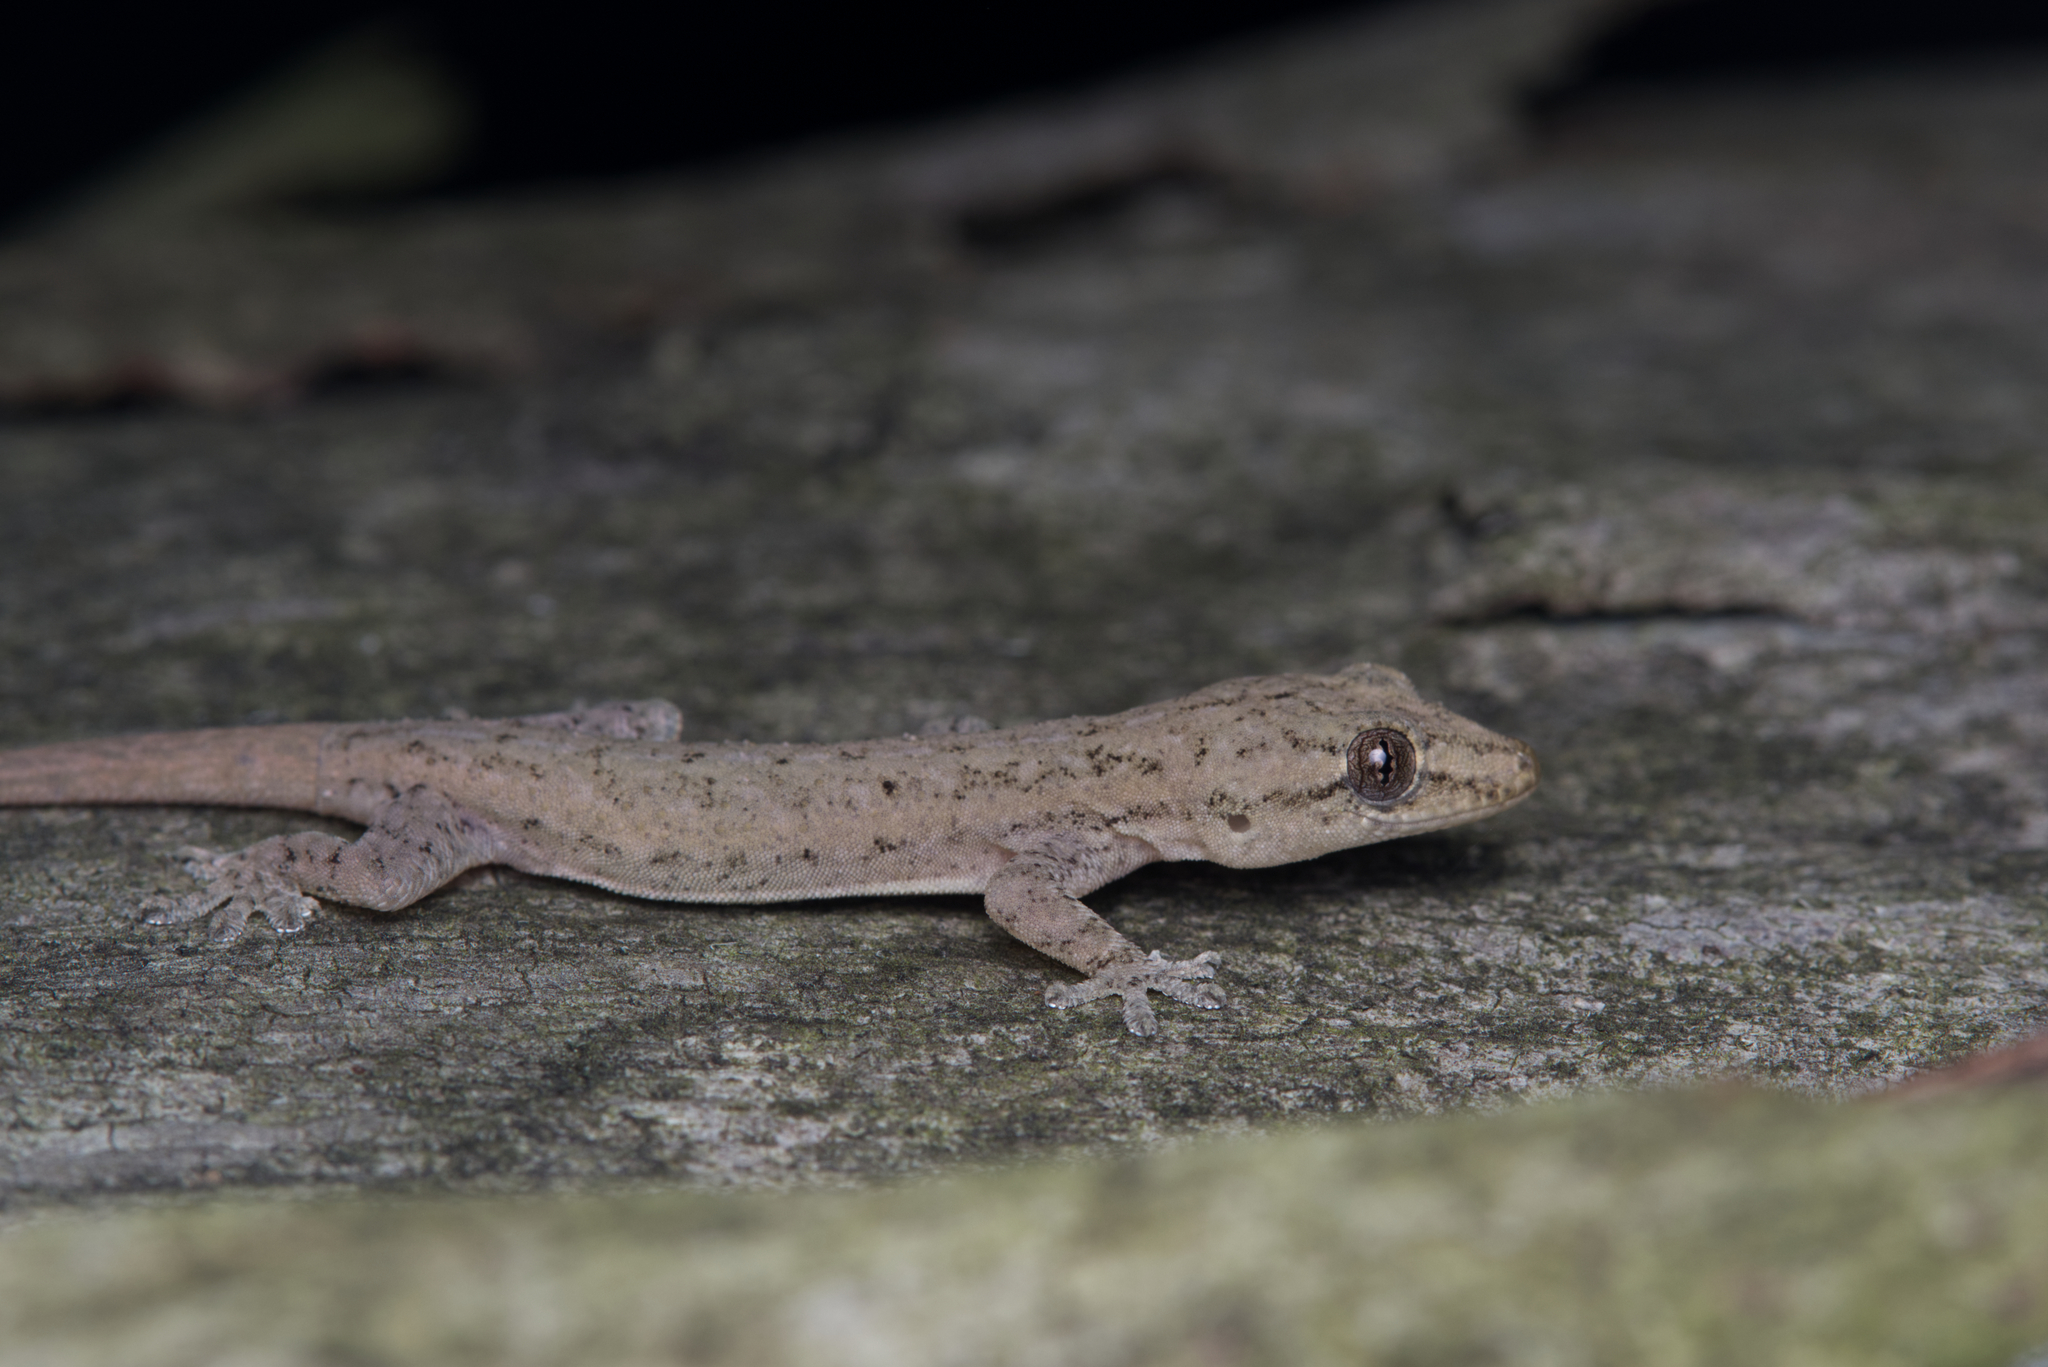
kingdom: Animalia
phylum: Chordata
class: Squamata
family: Gekkonidae
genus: Hemidactylus
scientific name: Hemidactylus frenatus
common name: Common house gecko
